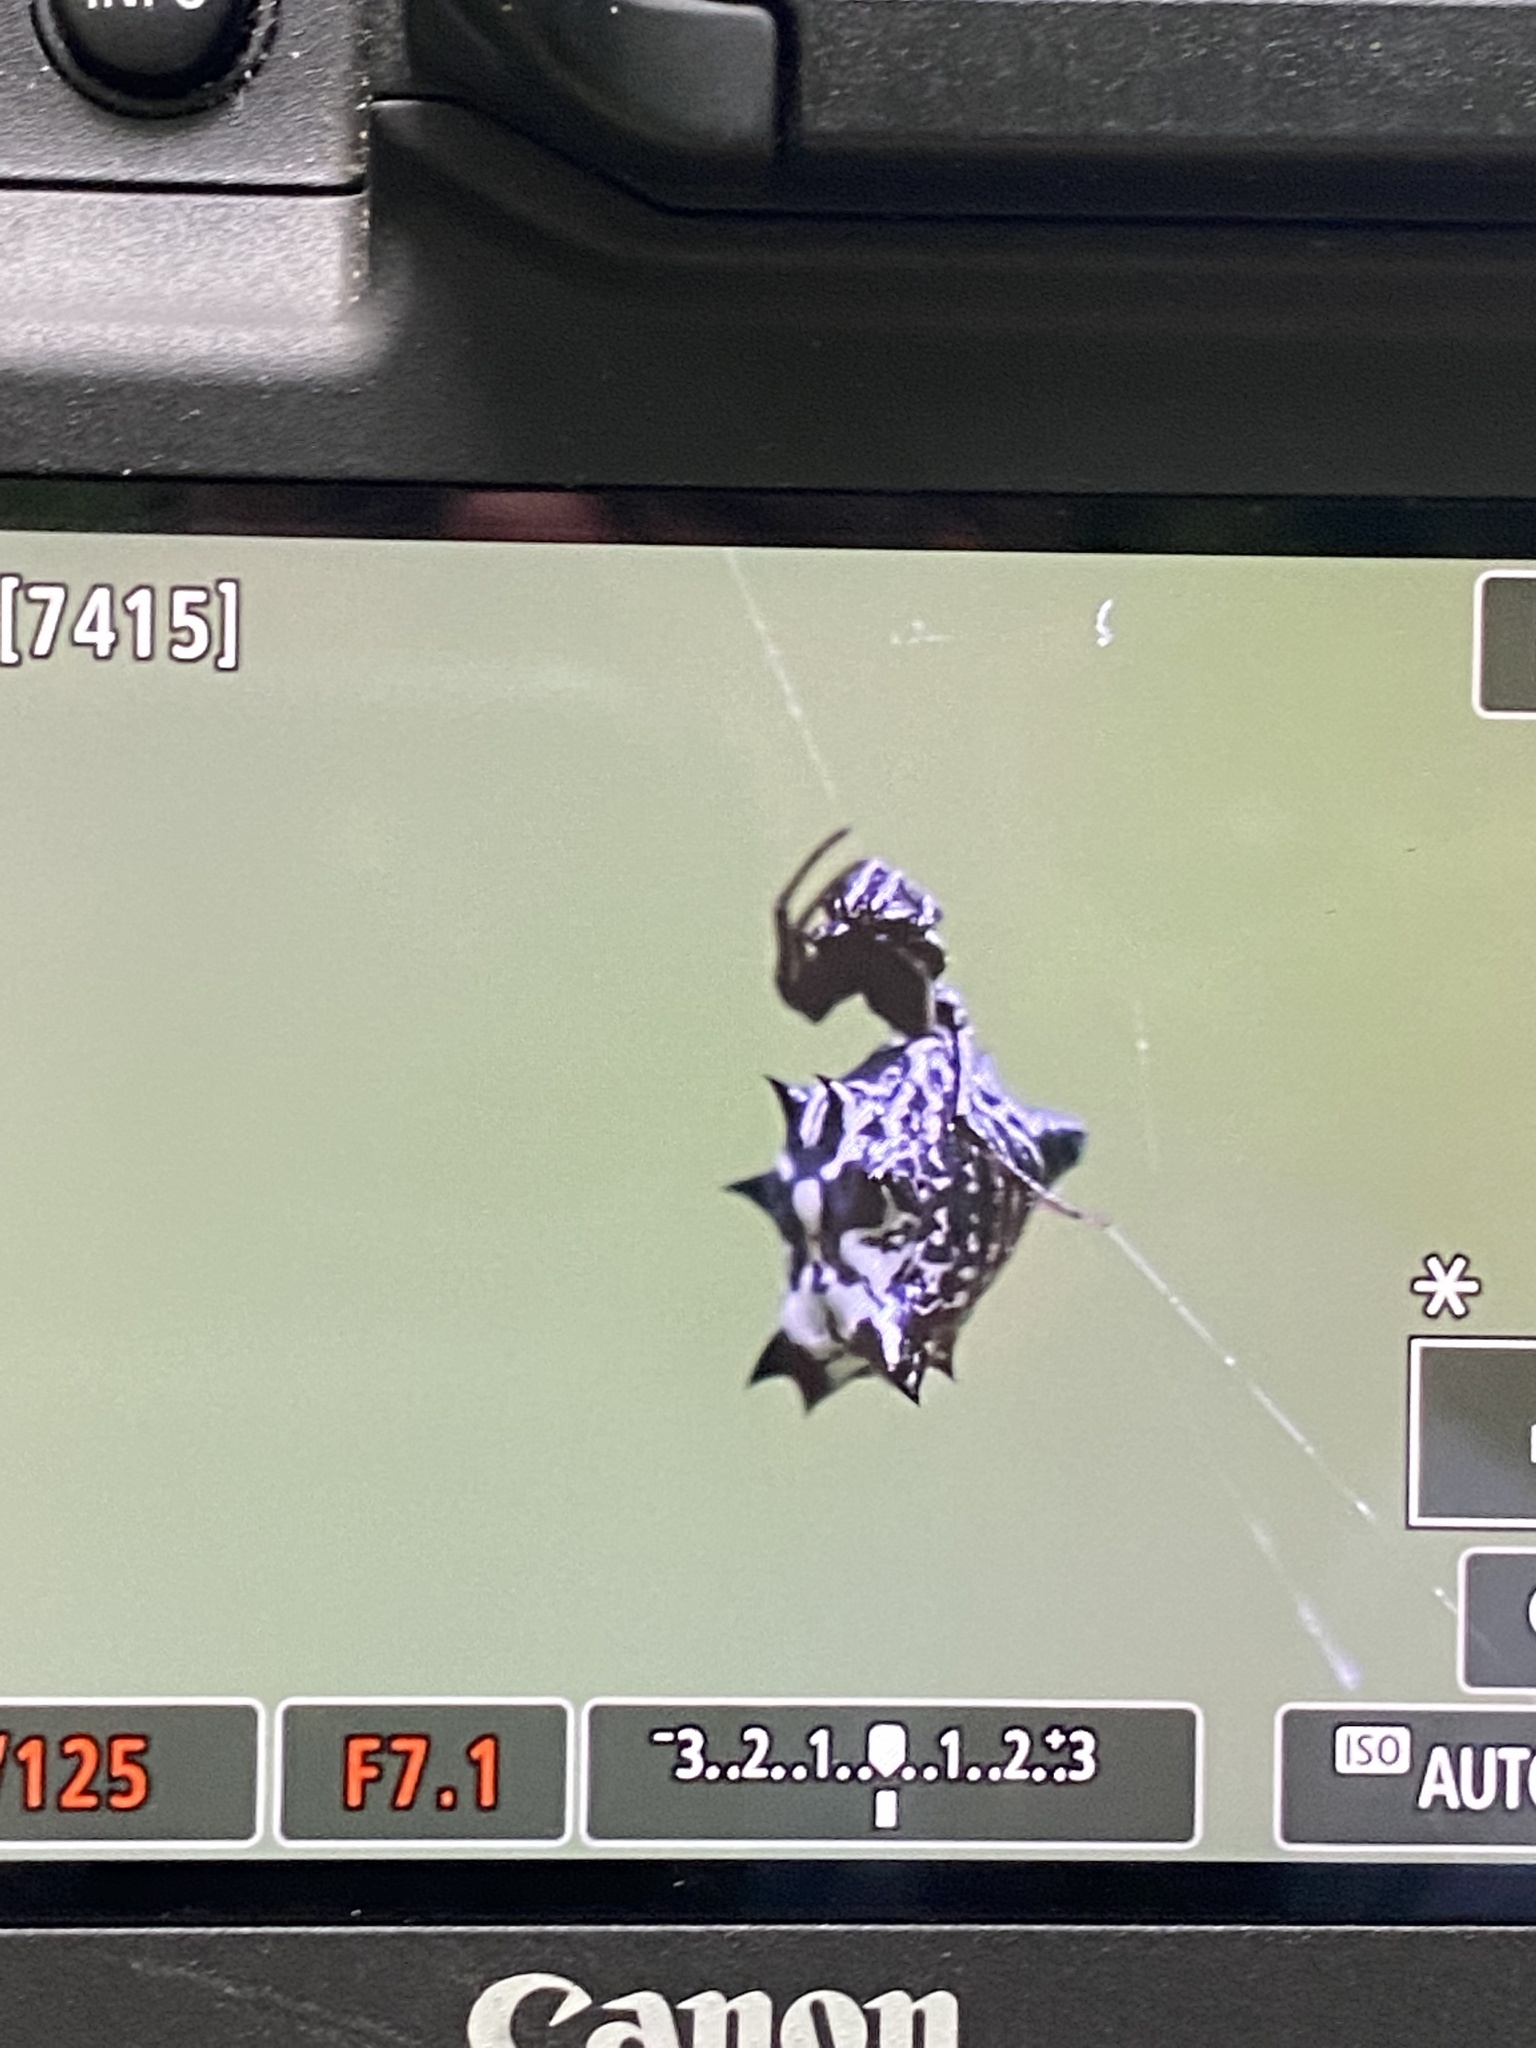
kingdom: Animalia
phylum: Arthropoda
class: Arachnida
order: Araneae
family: Araneidae
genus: Micrathena
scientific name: Micrathena gracilis
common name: Orb weavers
